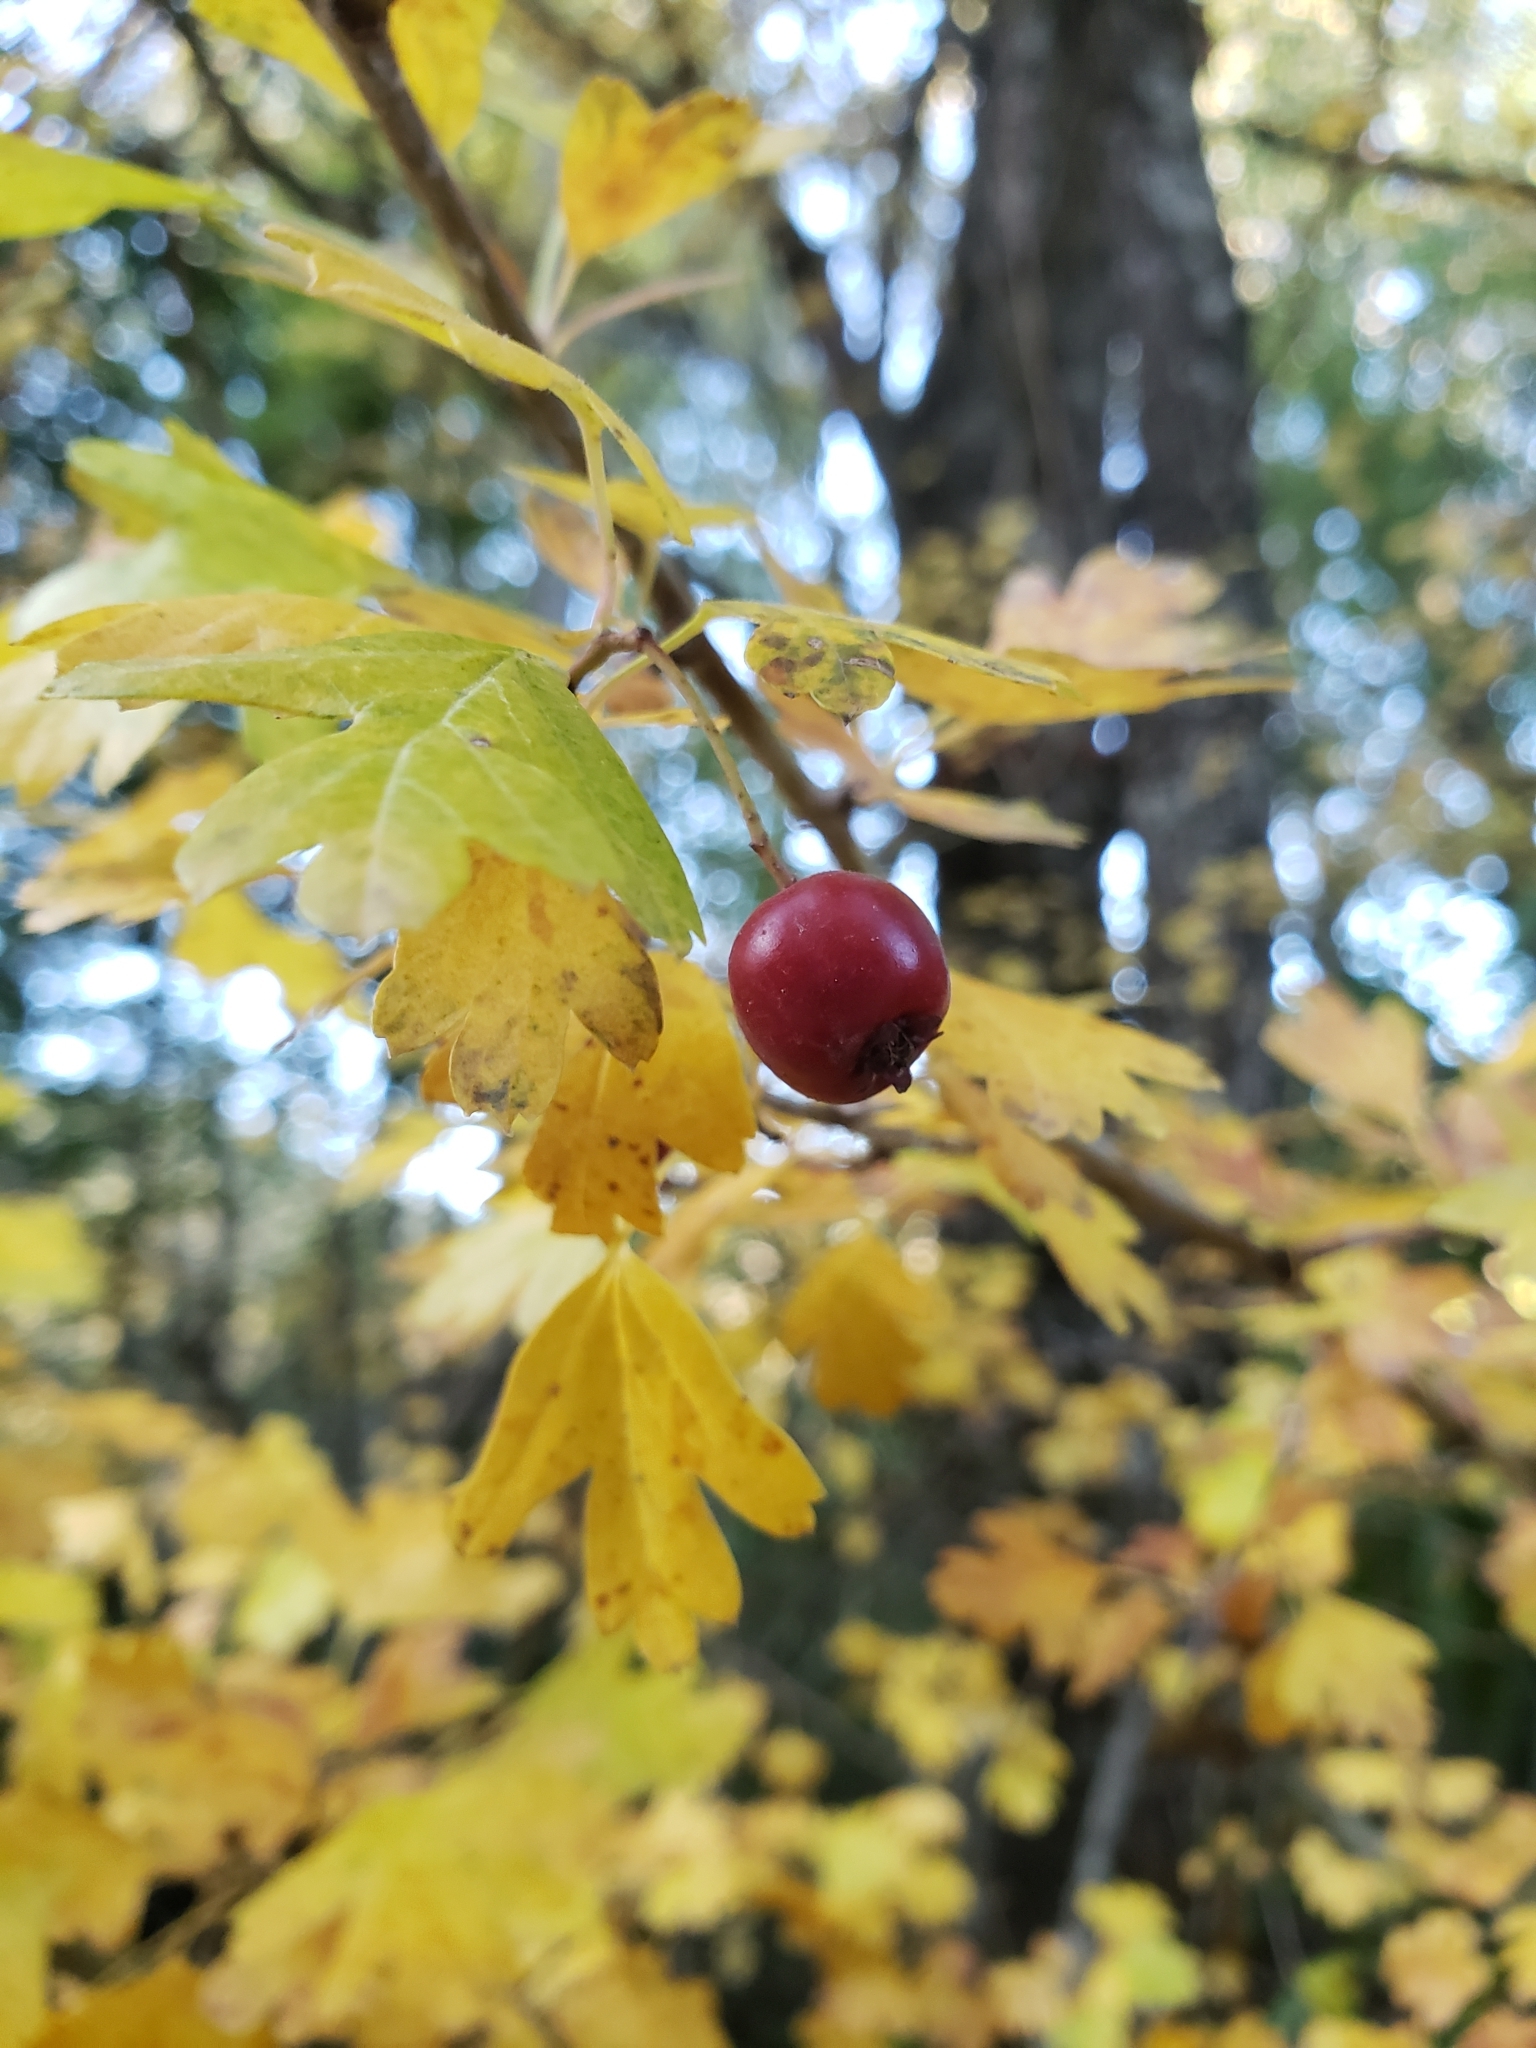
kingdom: Plantae
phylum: Tracheophyta
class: Magnoliopsida
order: Rosales
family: Rosaceae
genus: Crataegus
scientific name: Crataegus monogyna
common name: Hawthorn
